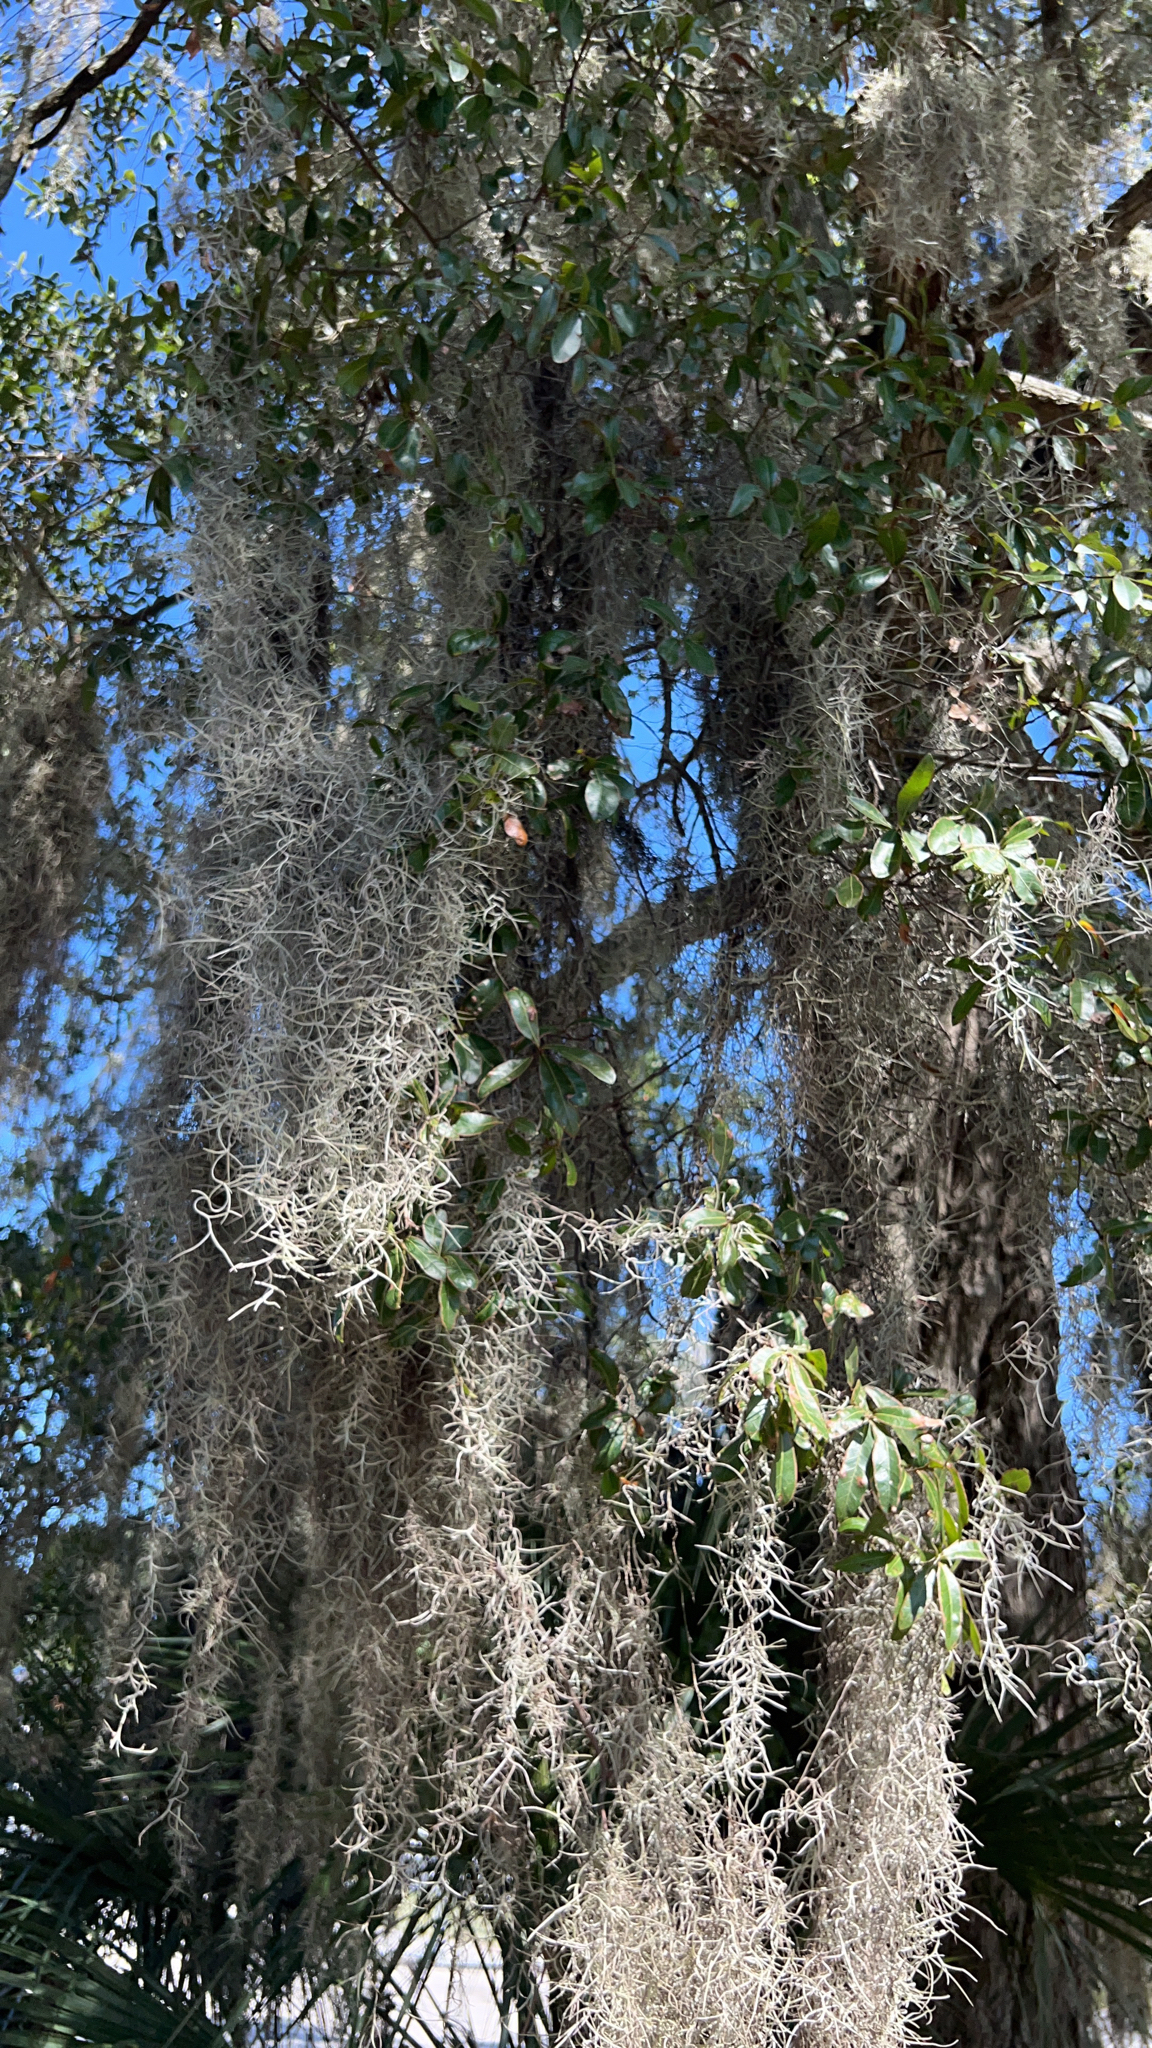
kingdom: Plantae
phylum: Tracheophyta
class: Liliopsida
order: Poales
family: Bromeliaceae
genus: Tillandsia
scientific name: Tillandsia usneoides
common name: Spanish moss
